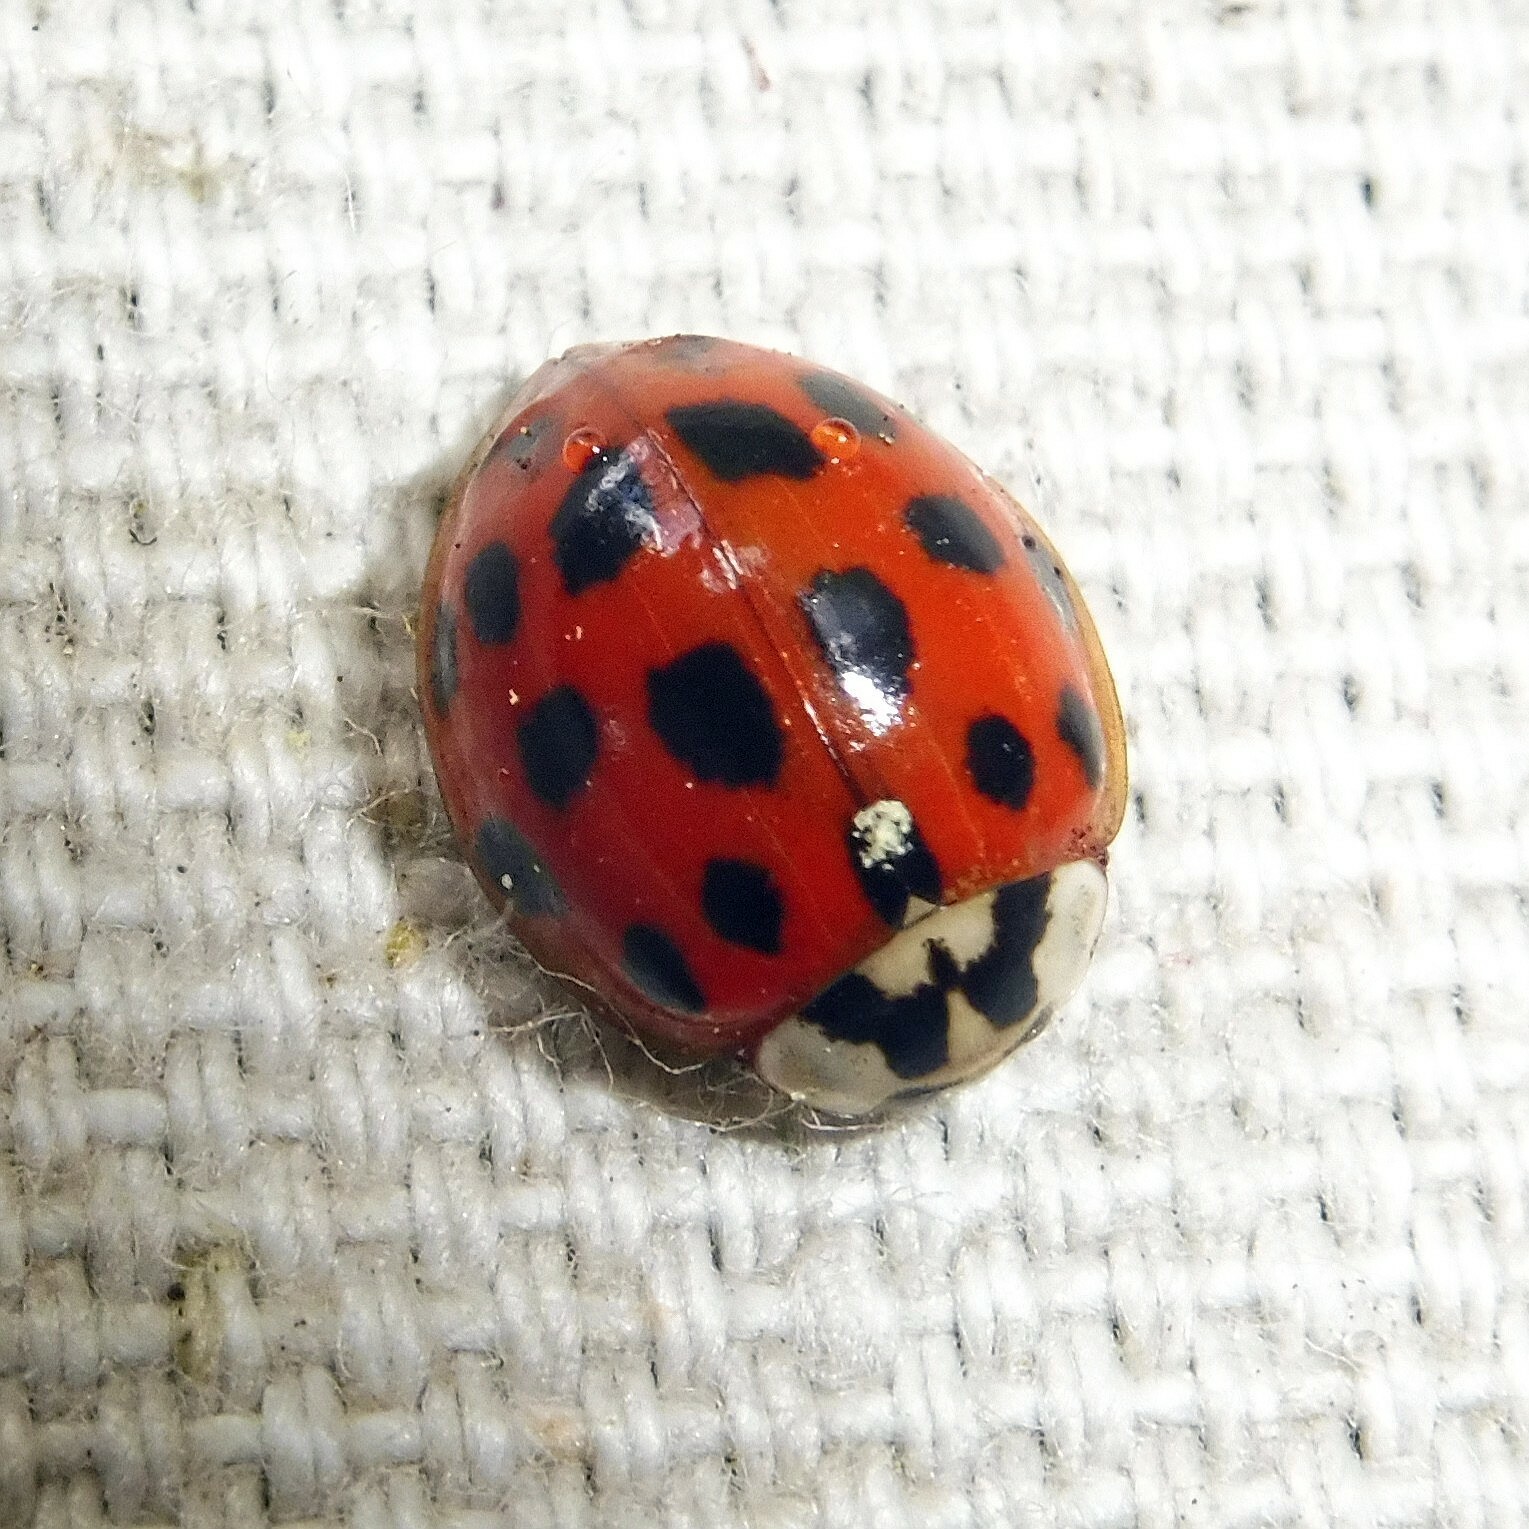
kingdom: Animalia
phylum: Arthropoda
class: Insecta
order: Coleoptera
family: Coccinellidae
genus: Harmonia
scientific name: Harmonia axyridis
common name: Harlequin ladybird
